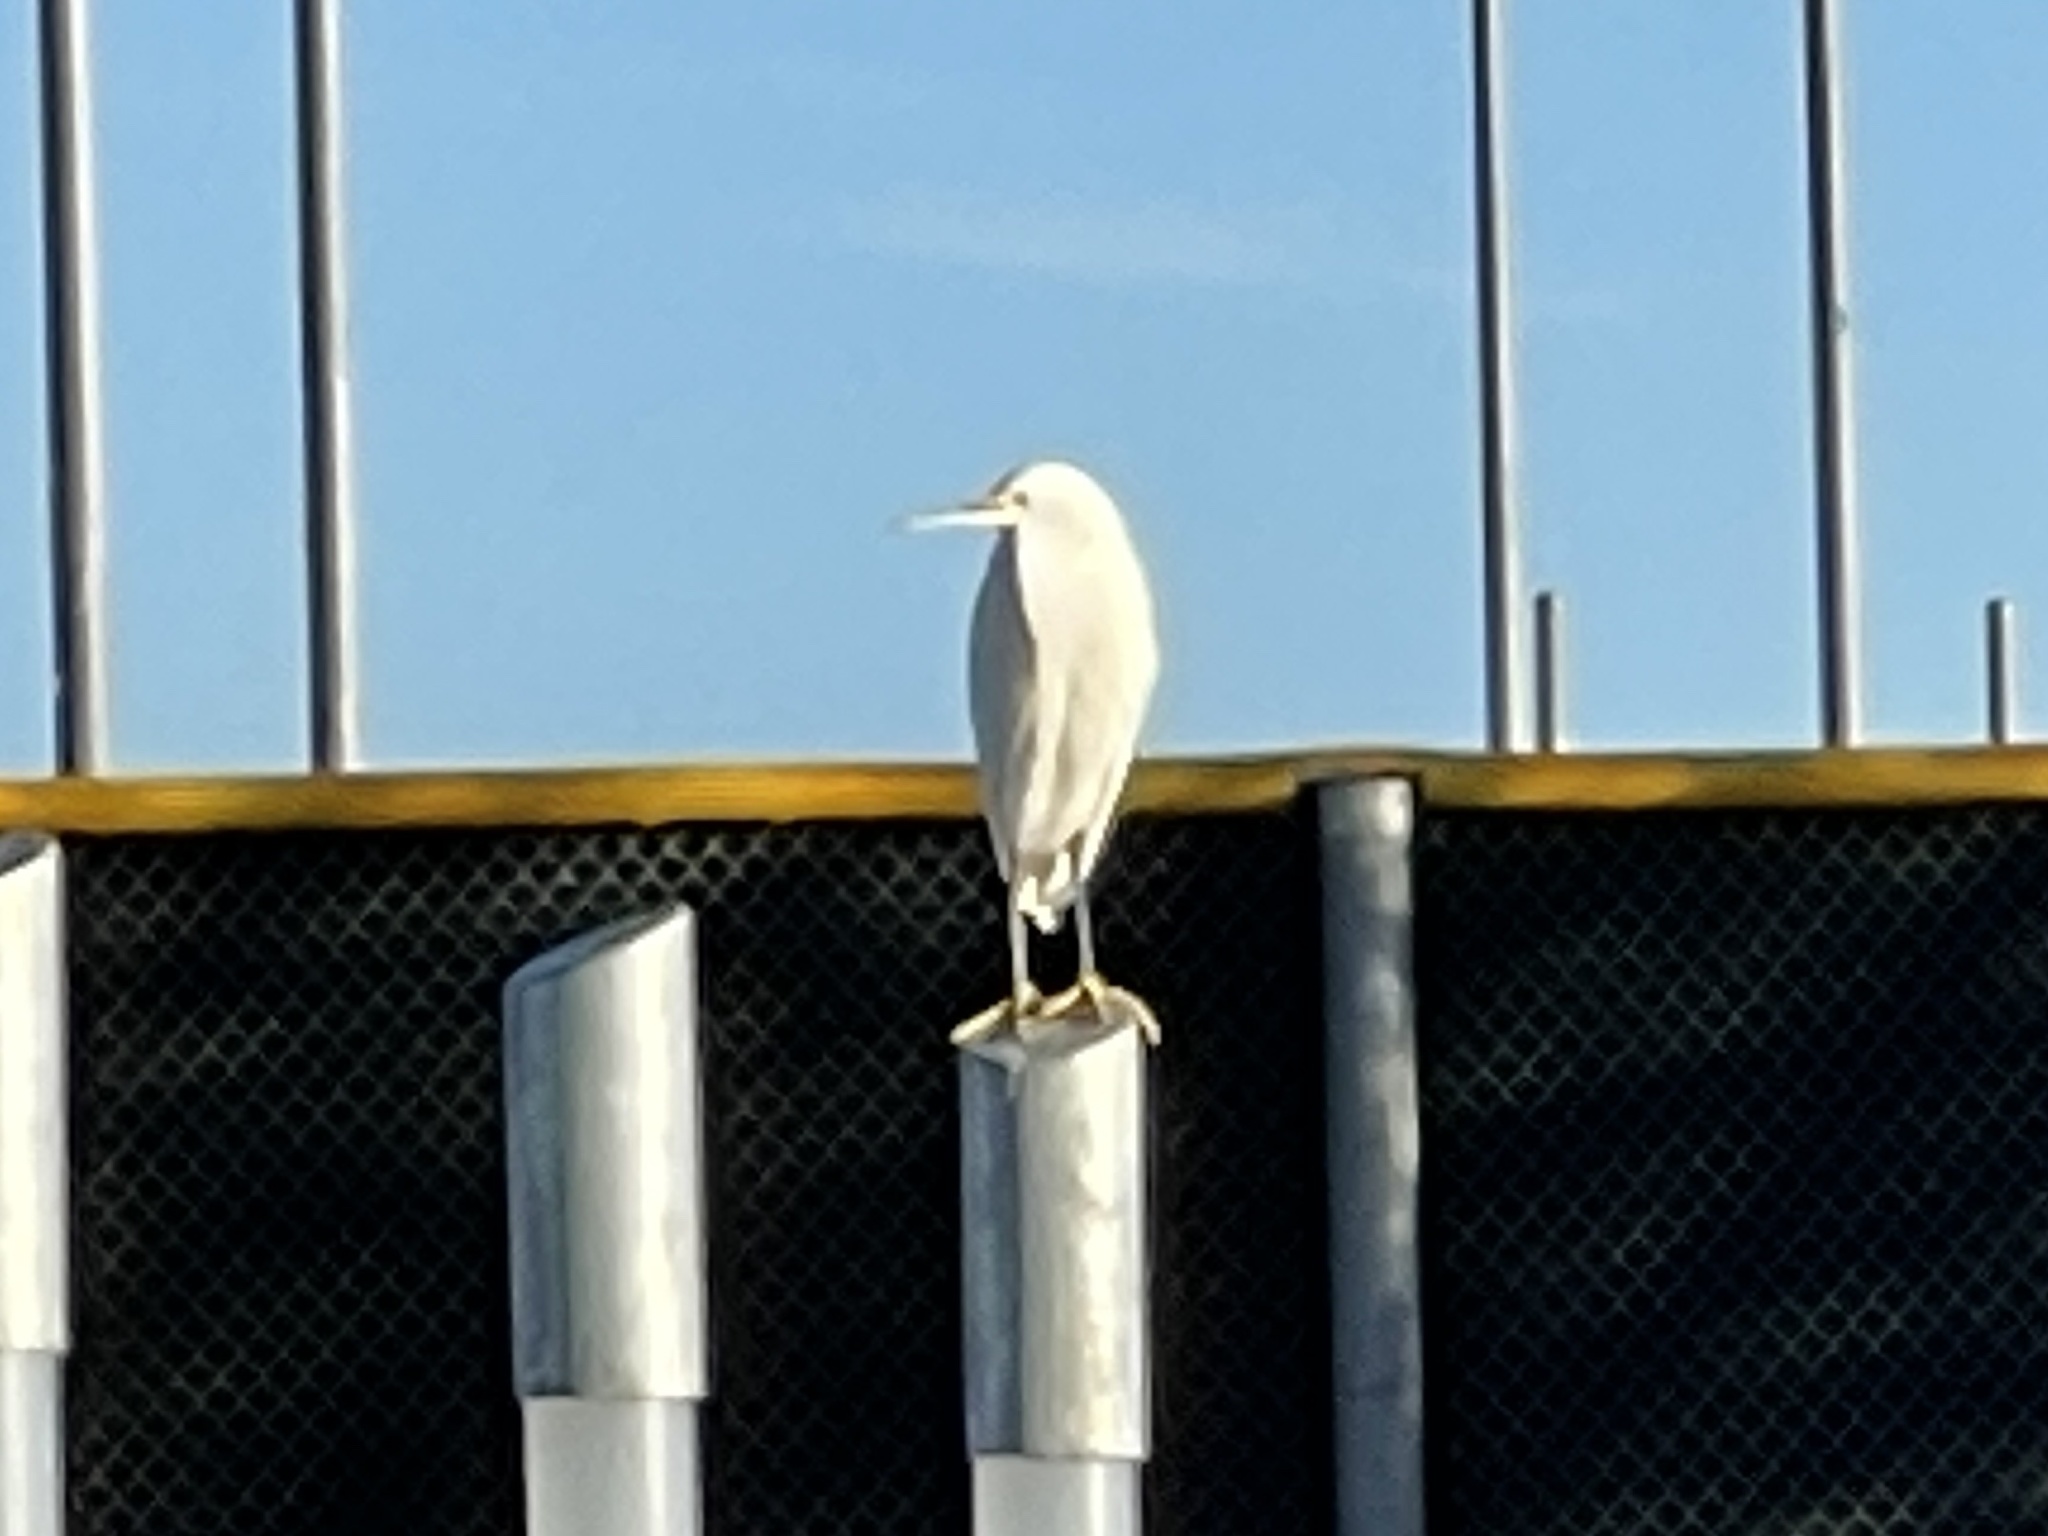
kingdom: Animalia
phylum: Chordata
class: Aves
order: Pelecaniformes
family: Ardeidae
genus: Egretta
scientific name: Egretta thula
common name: Snowy egret
